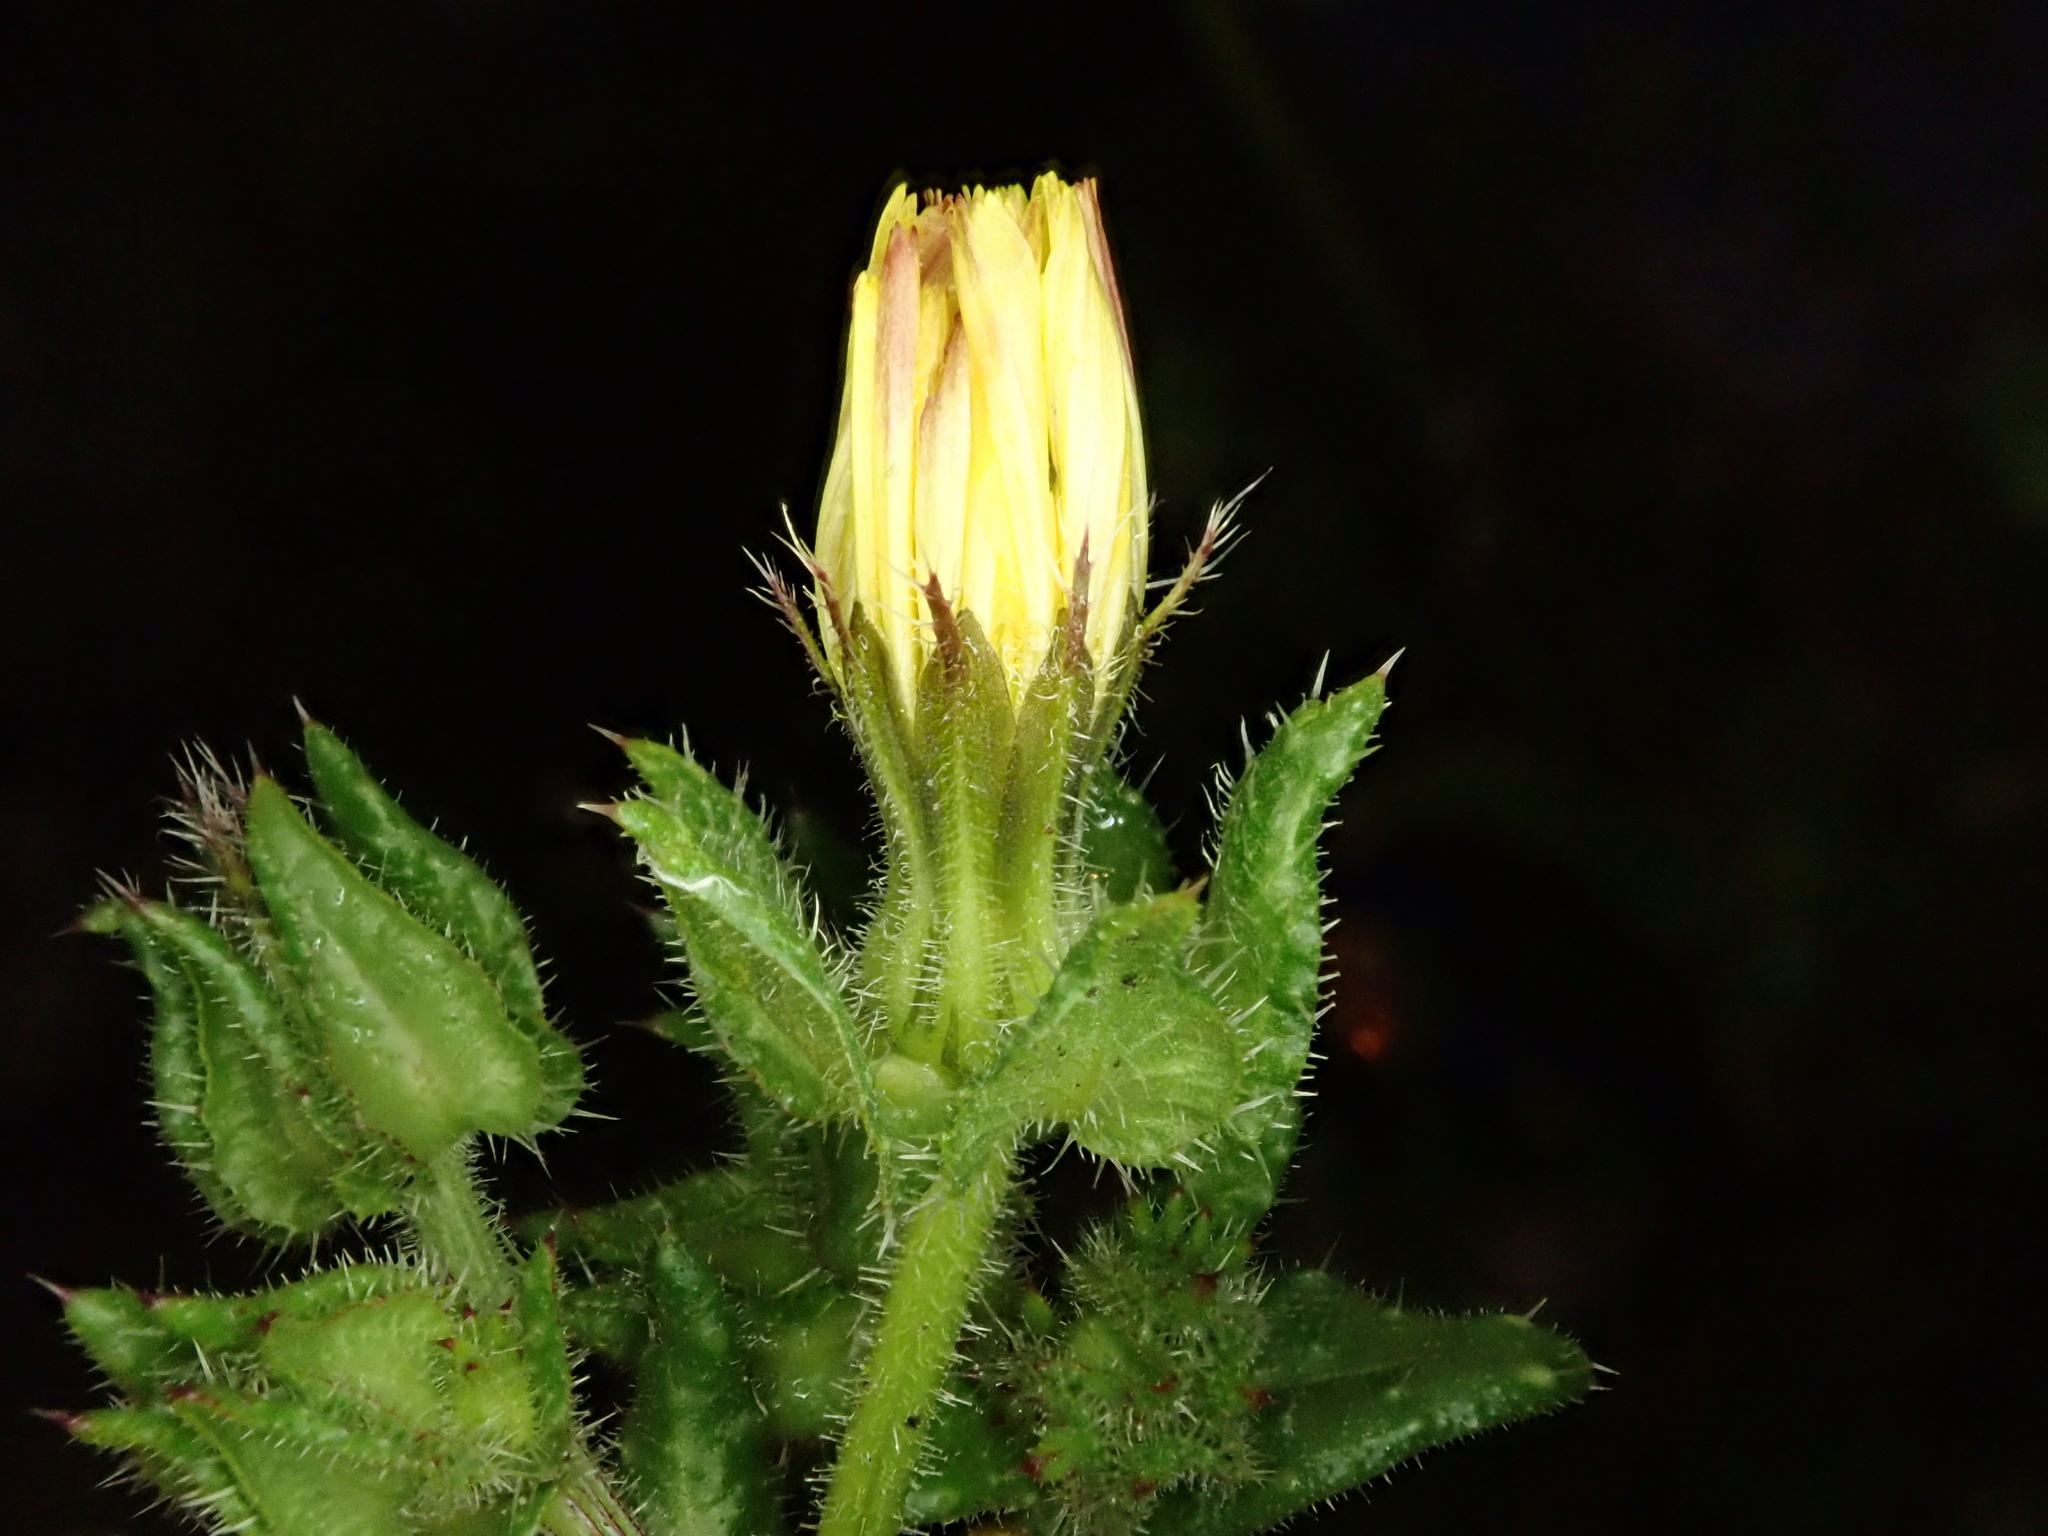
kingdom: Plantae
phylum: Tracheophyta
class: Magnoliopsida
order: Asterales
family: Asteraceae
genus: Helminthotheca
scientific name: Helminthotheca echioides
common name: Ox-tongue
